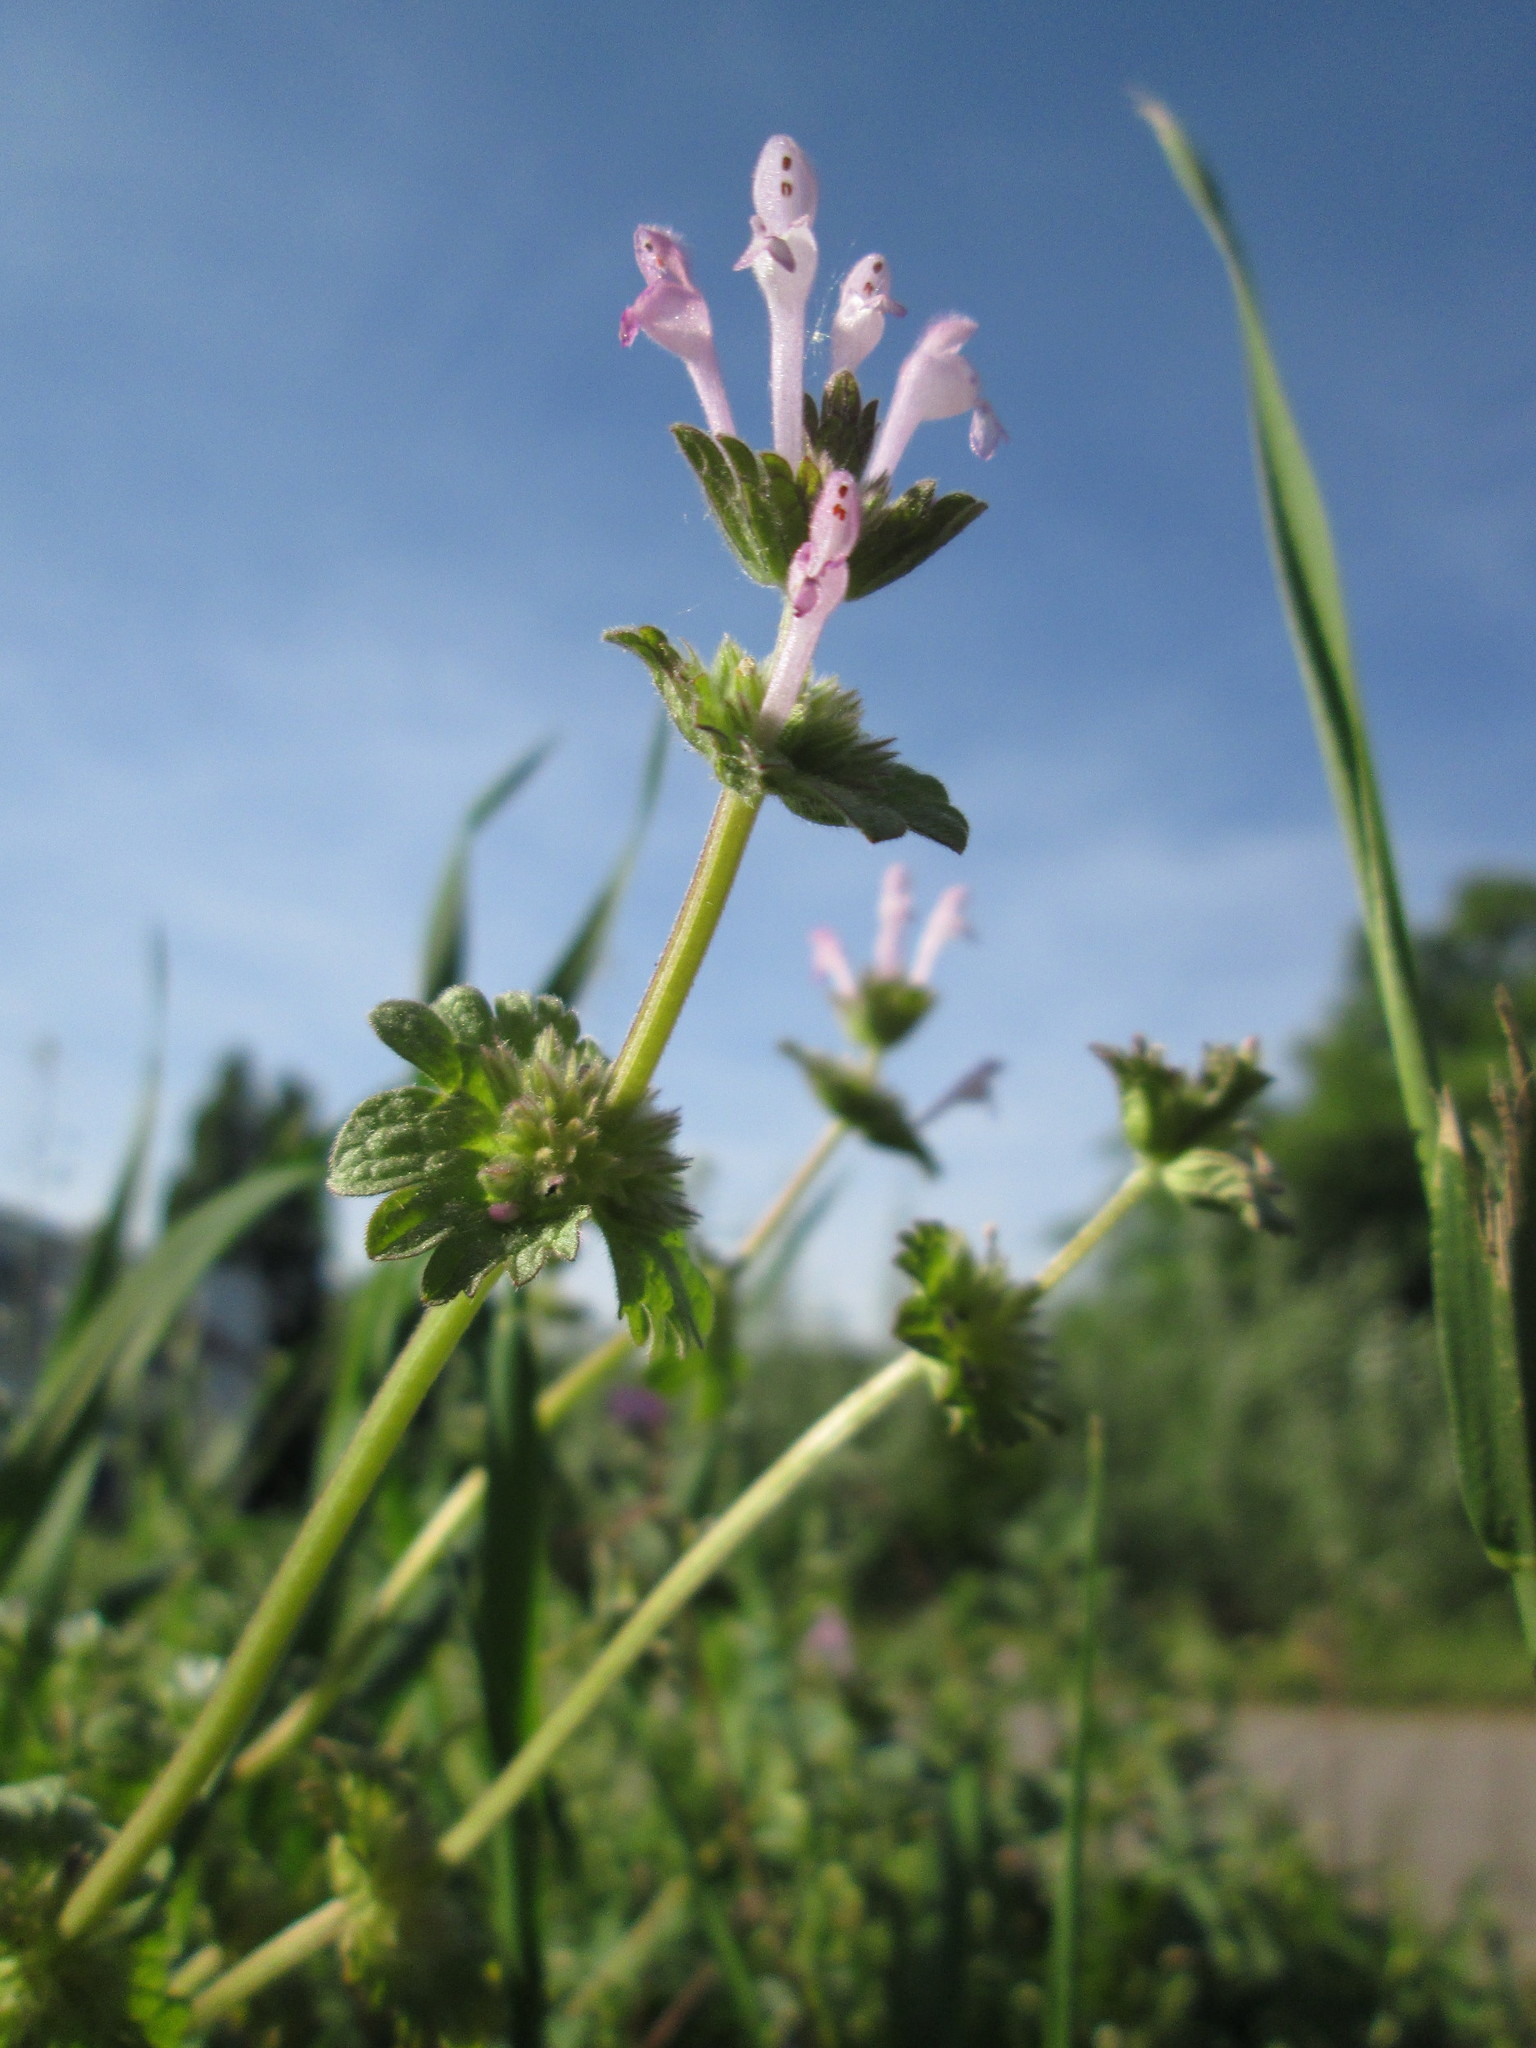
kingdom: Plantae
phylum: Tracheophyta
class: Magnoliopsida
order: Lamiales
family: Lamiaceae
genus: Lamium
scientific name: Lamium amplexicaule
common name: Henbit dead-nettle
